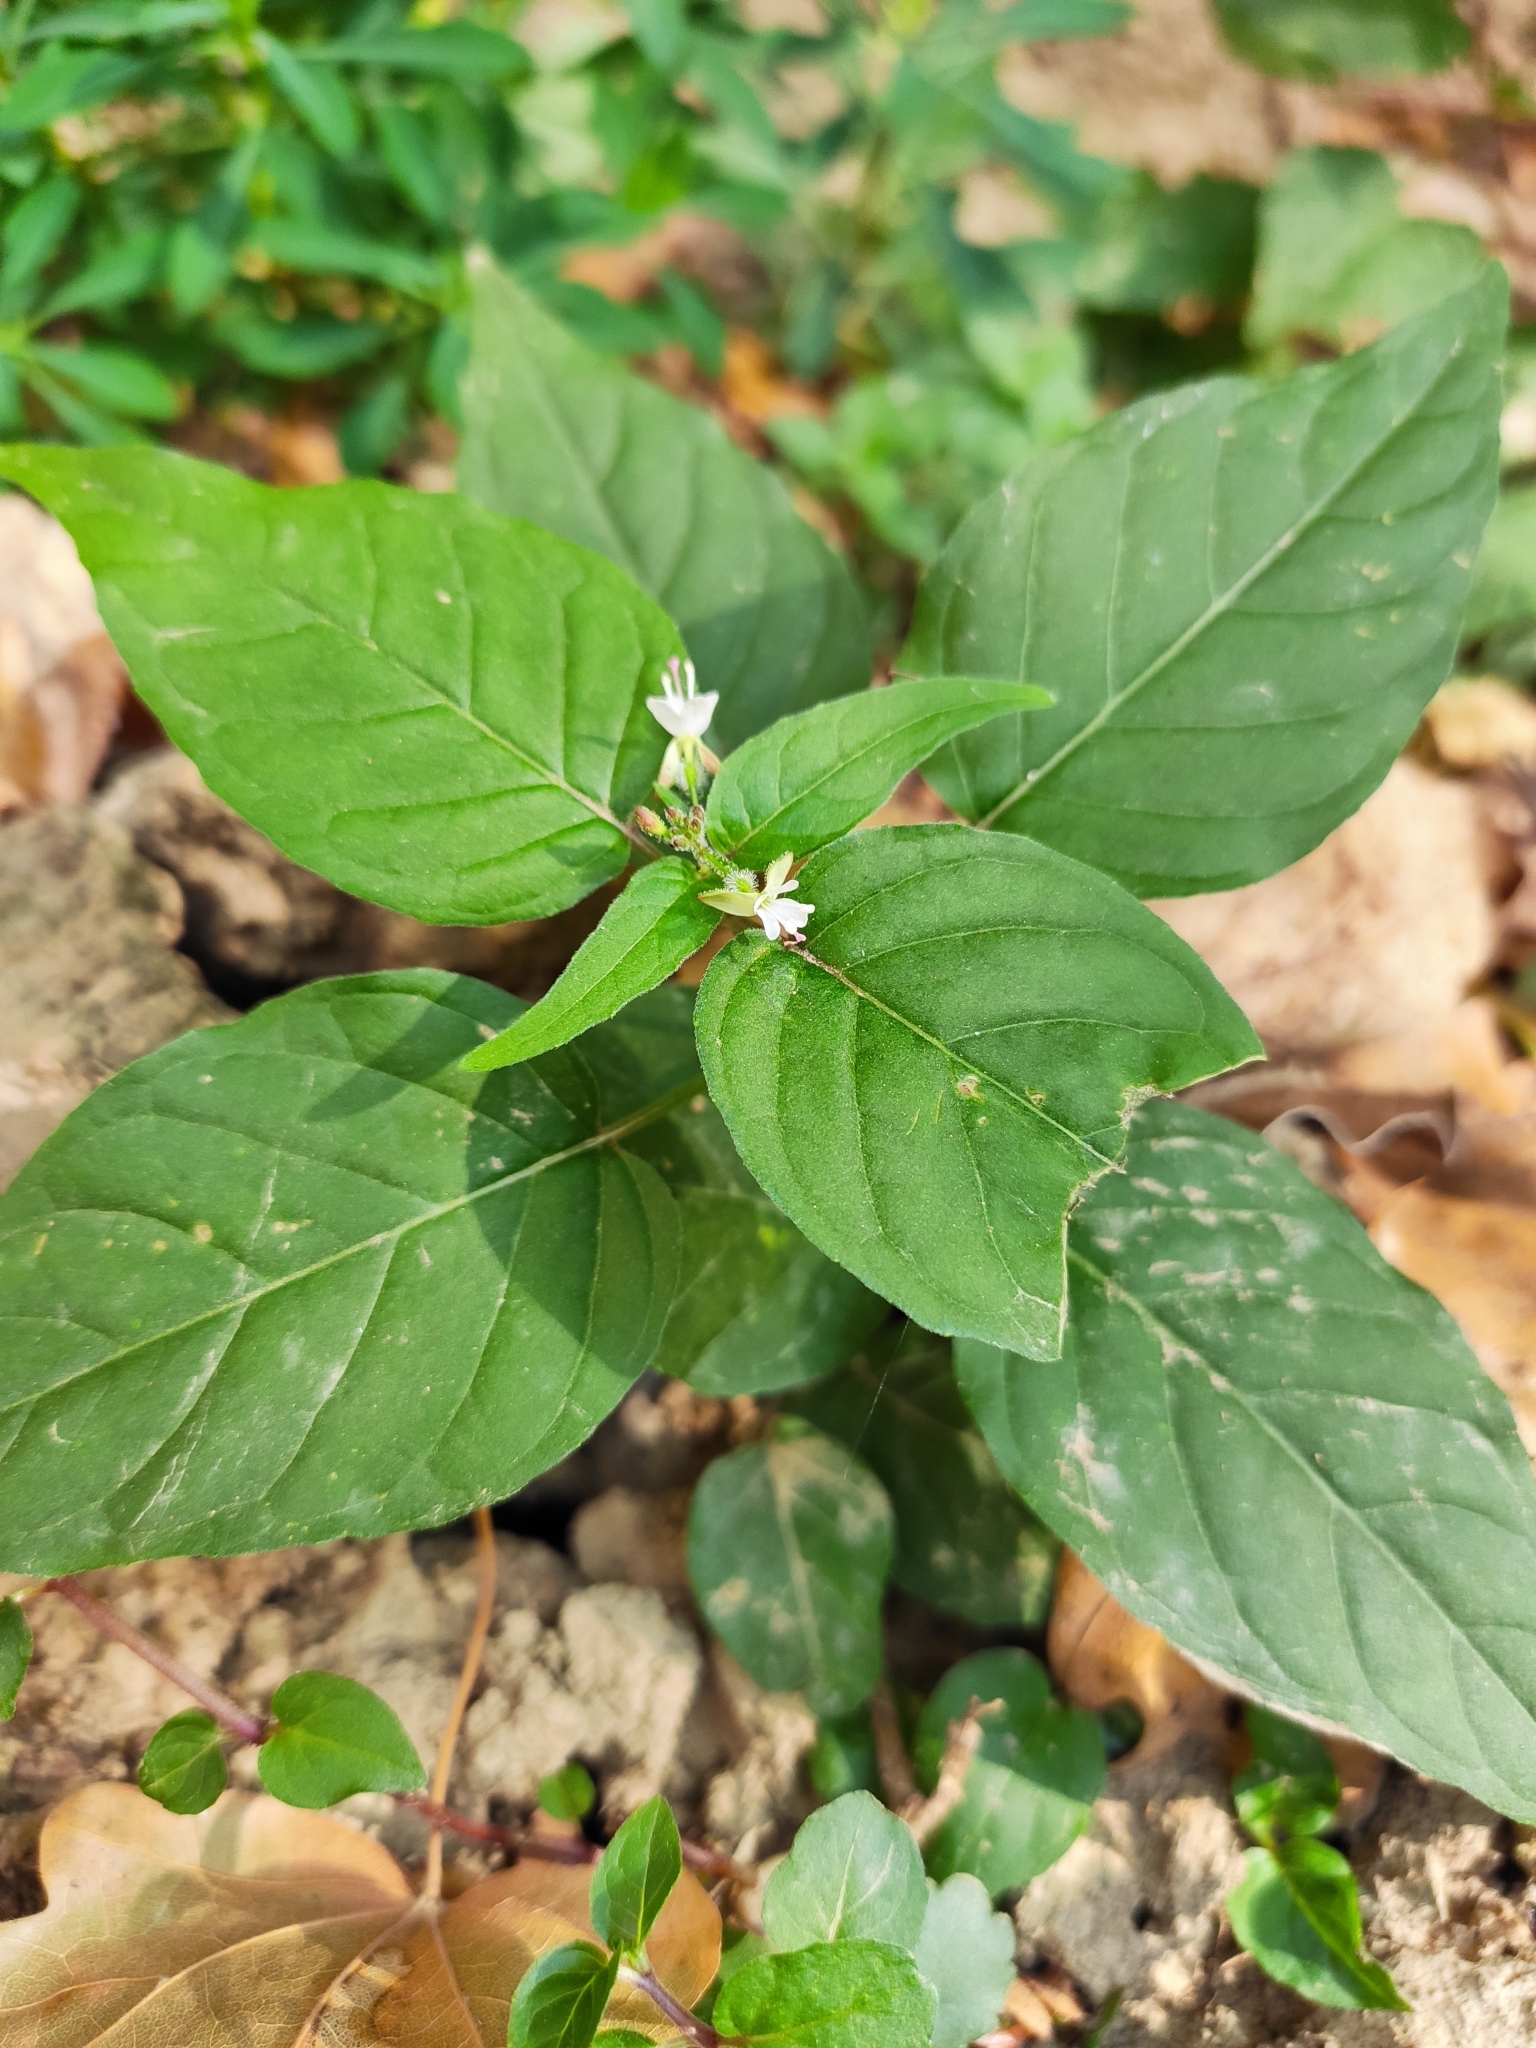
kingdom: Plantae
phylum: Tracheophyta
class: Magnoliopsida
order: Myrtales
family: Onagraceae
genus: Circaea
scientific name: Circaea lutetiana
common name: Enchanter's-nightshade
